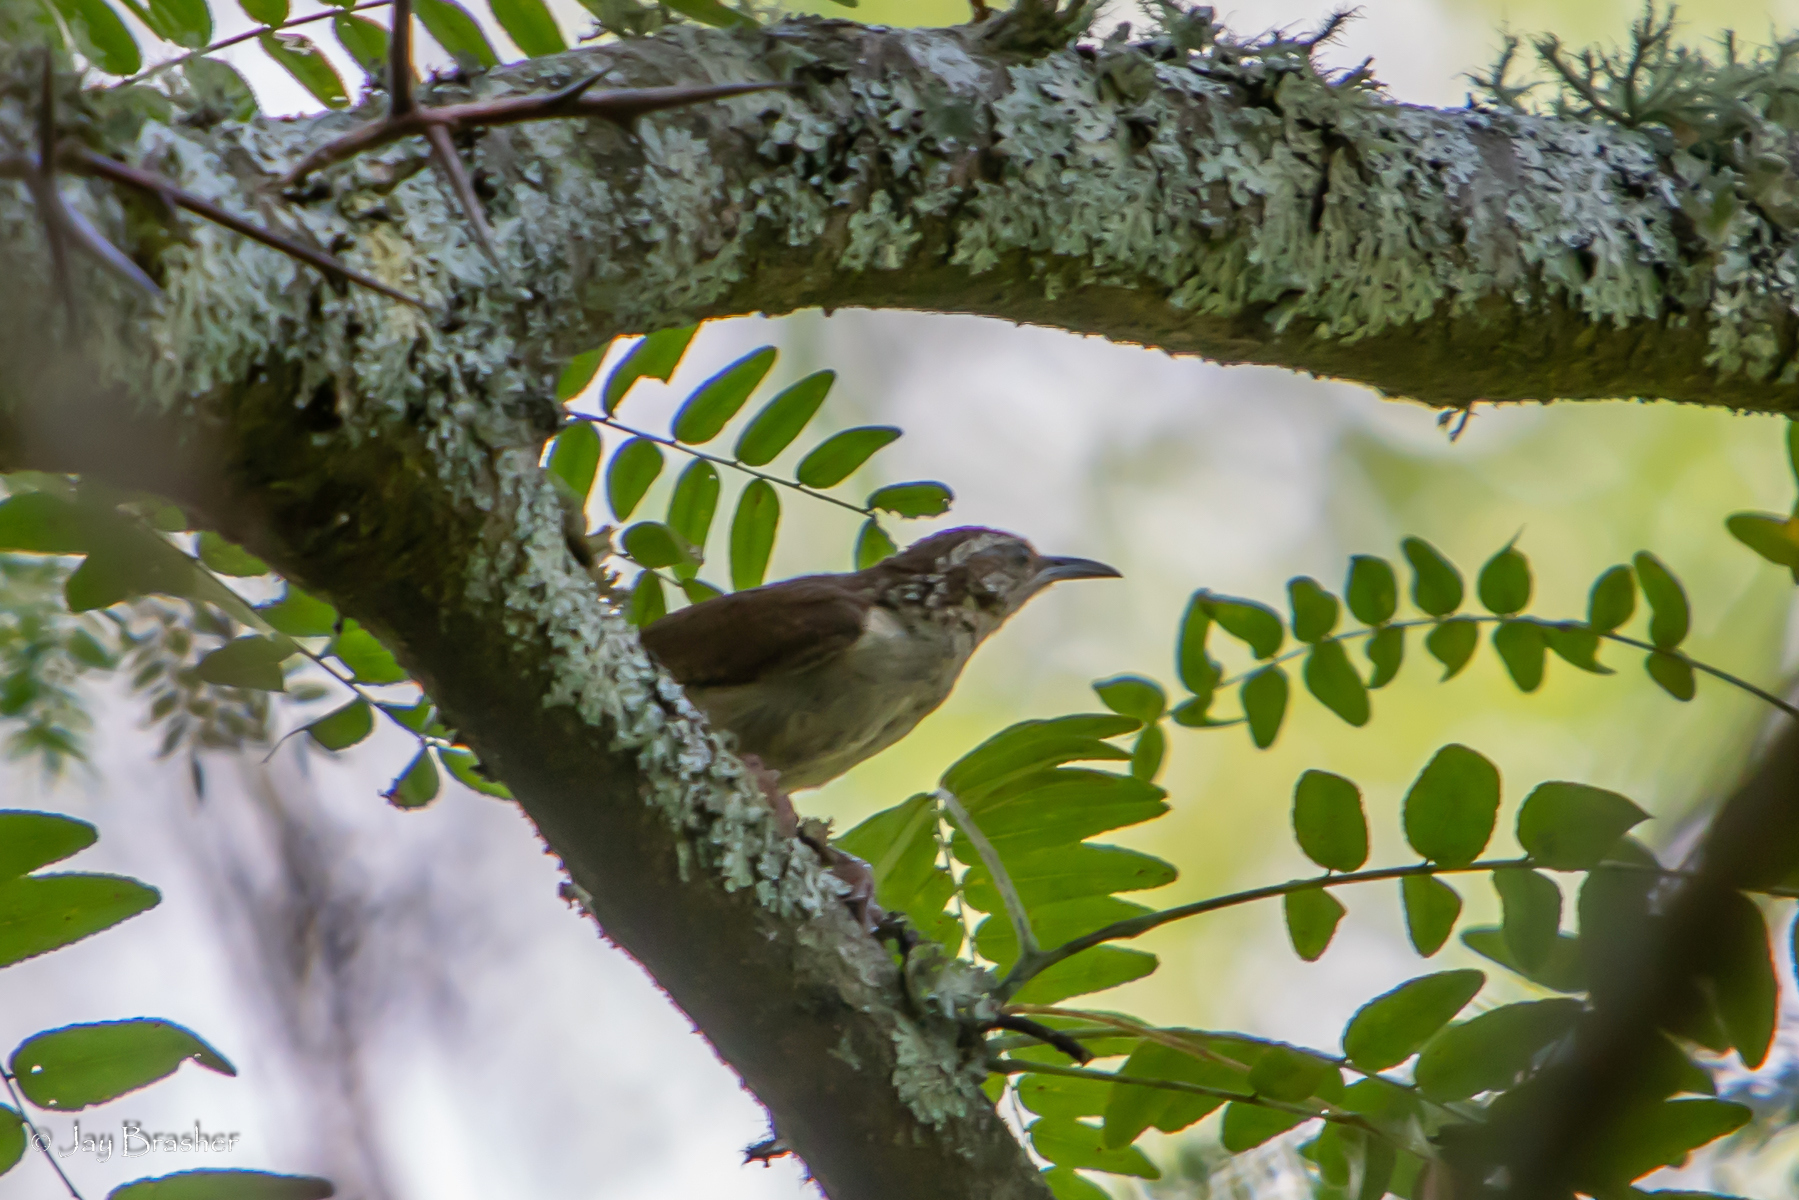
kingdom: Animalia
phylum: Chordata
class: Aves
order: Passeriformes
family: Troglodytidae
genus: Thryothorus
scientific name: Thryothorus ludovicianus
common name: Carolina wren
